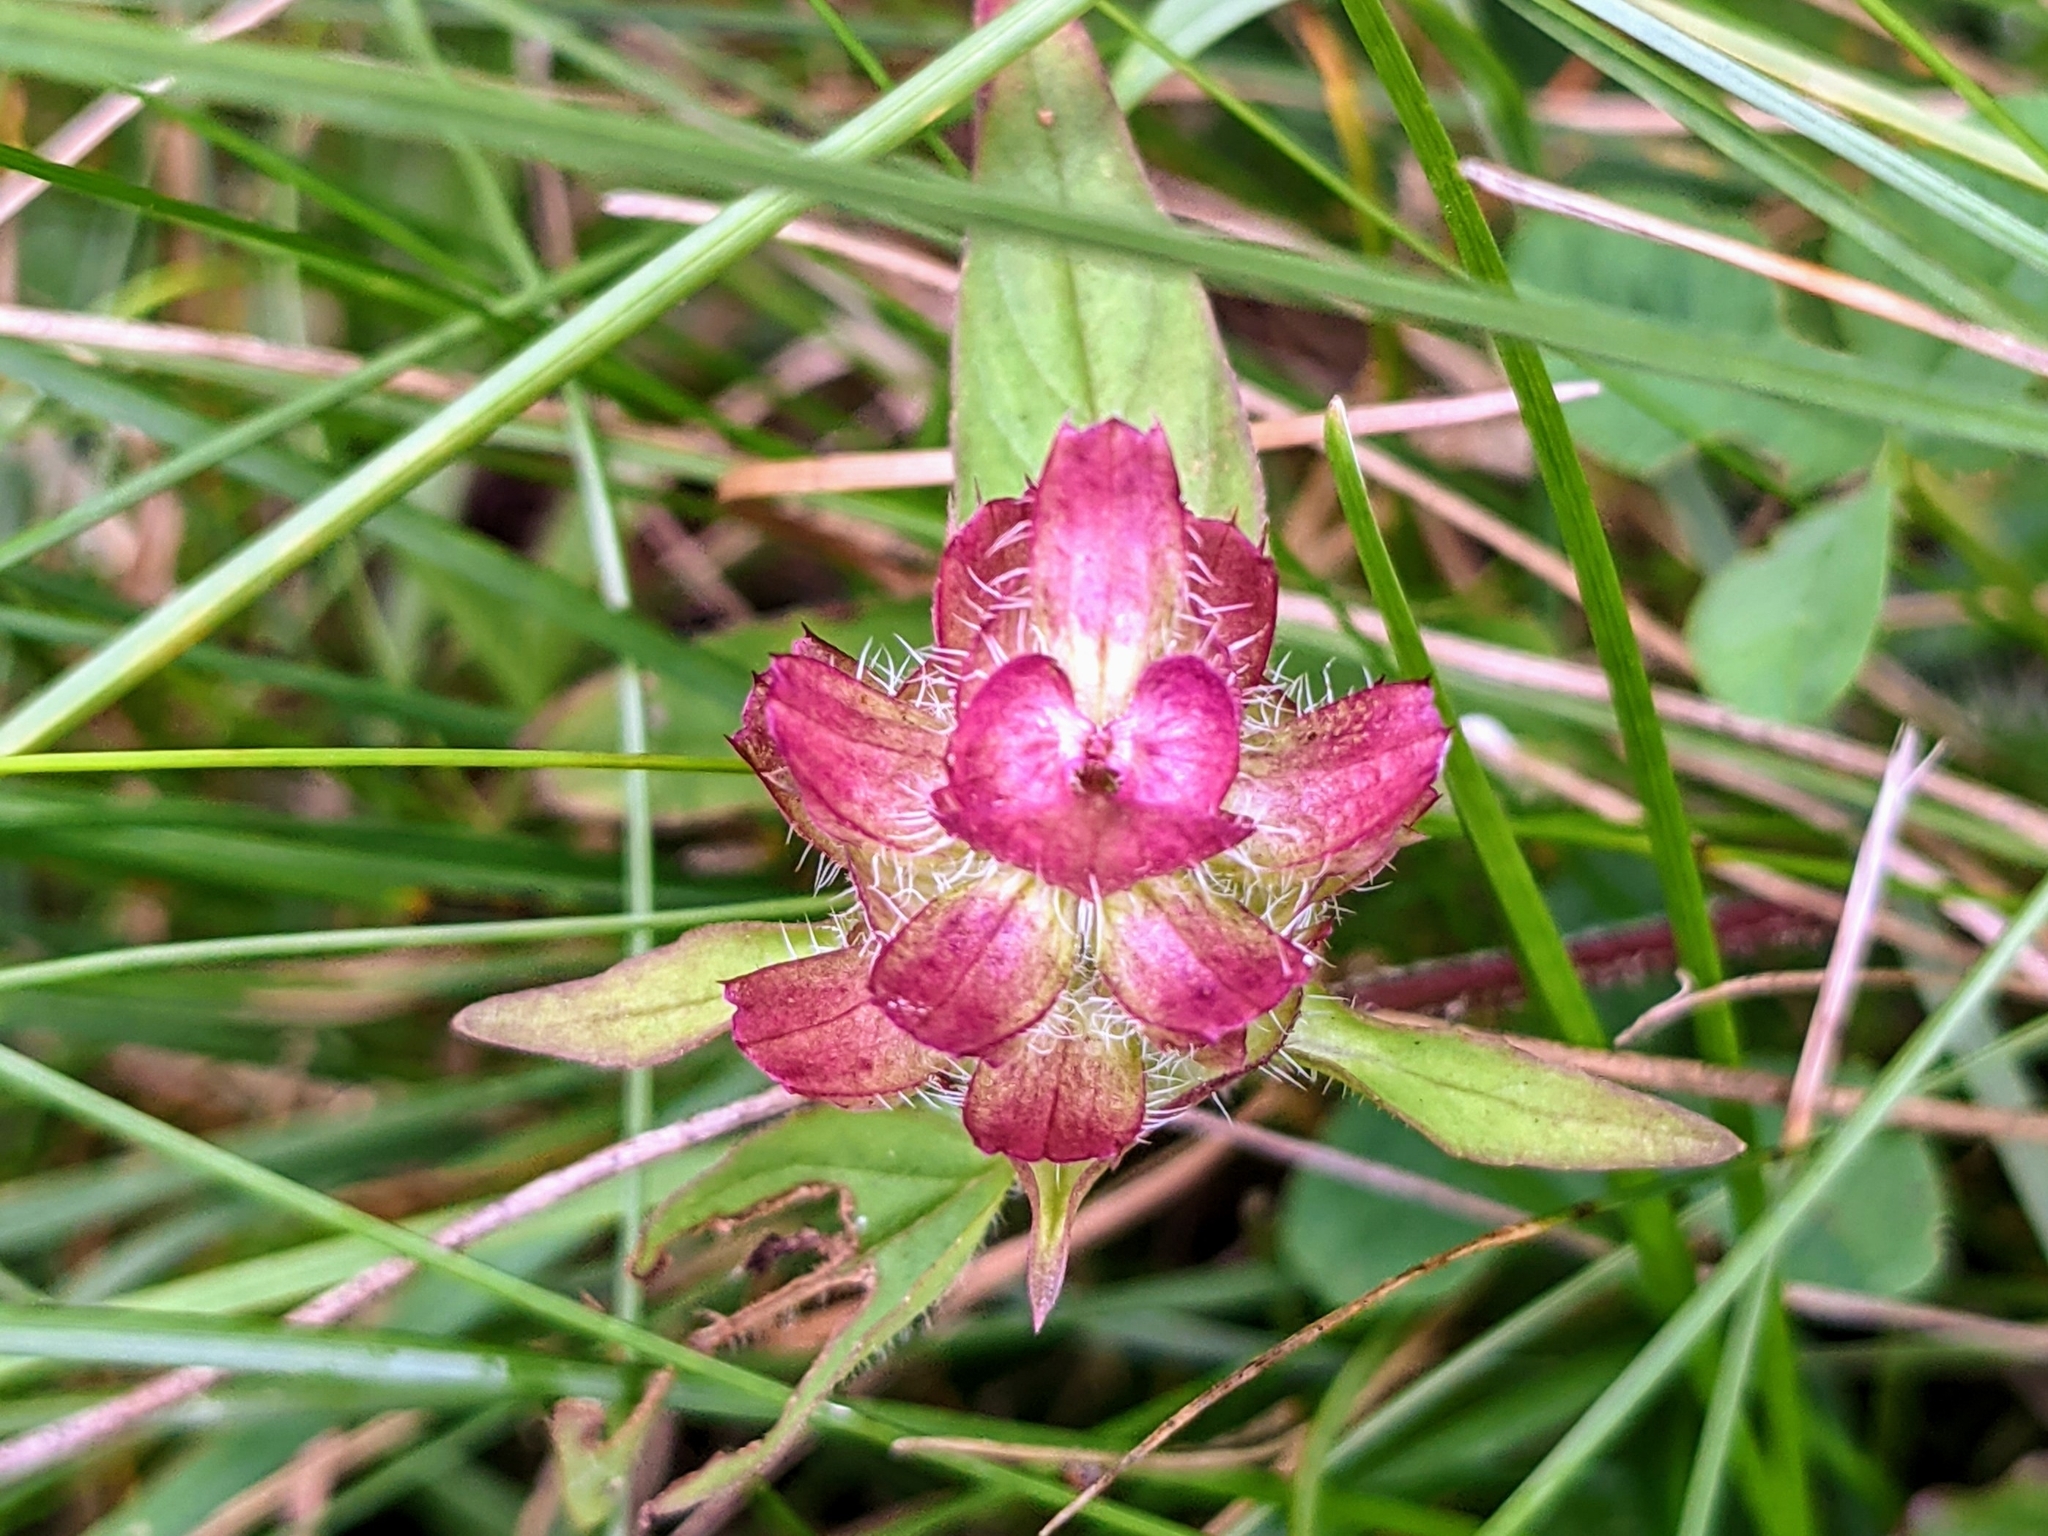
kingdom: Plantae
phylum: Tracheophyta
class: Magnoliopsida
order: Lamiales
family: Lamiaceae
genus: Prunella
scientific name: Prunella vulgaris
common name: Heal-all
